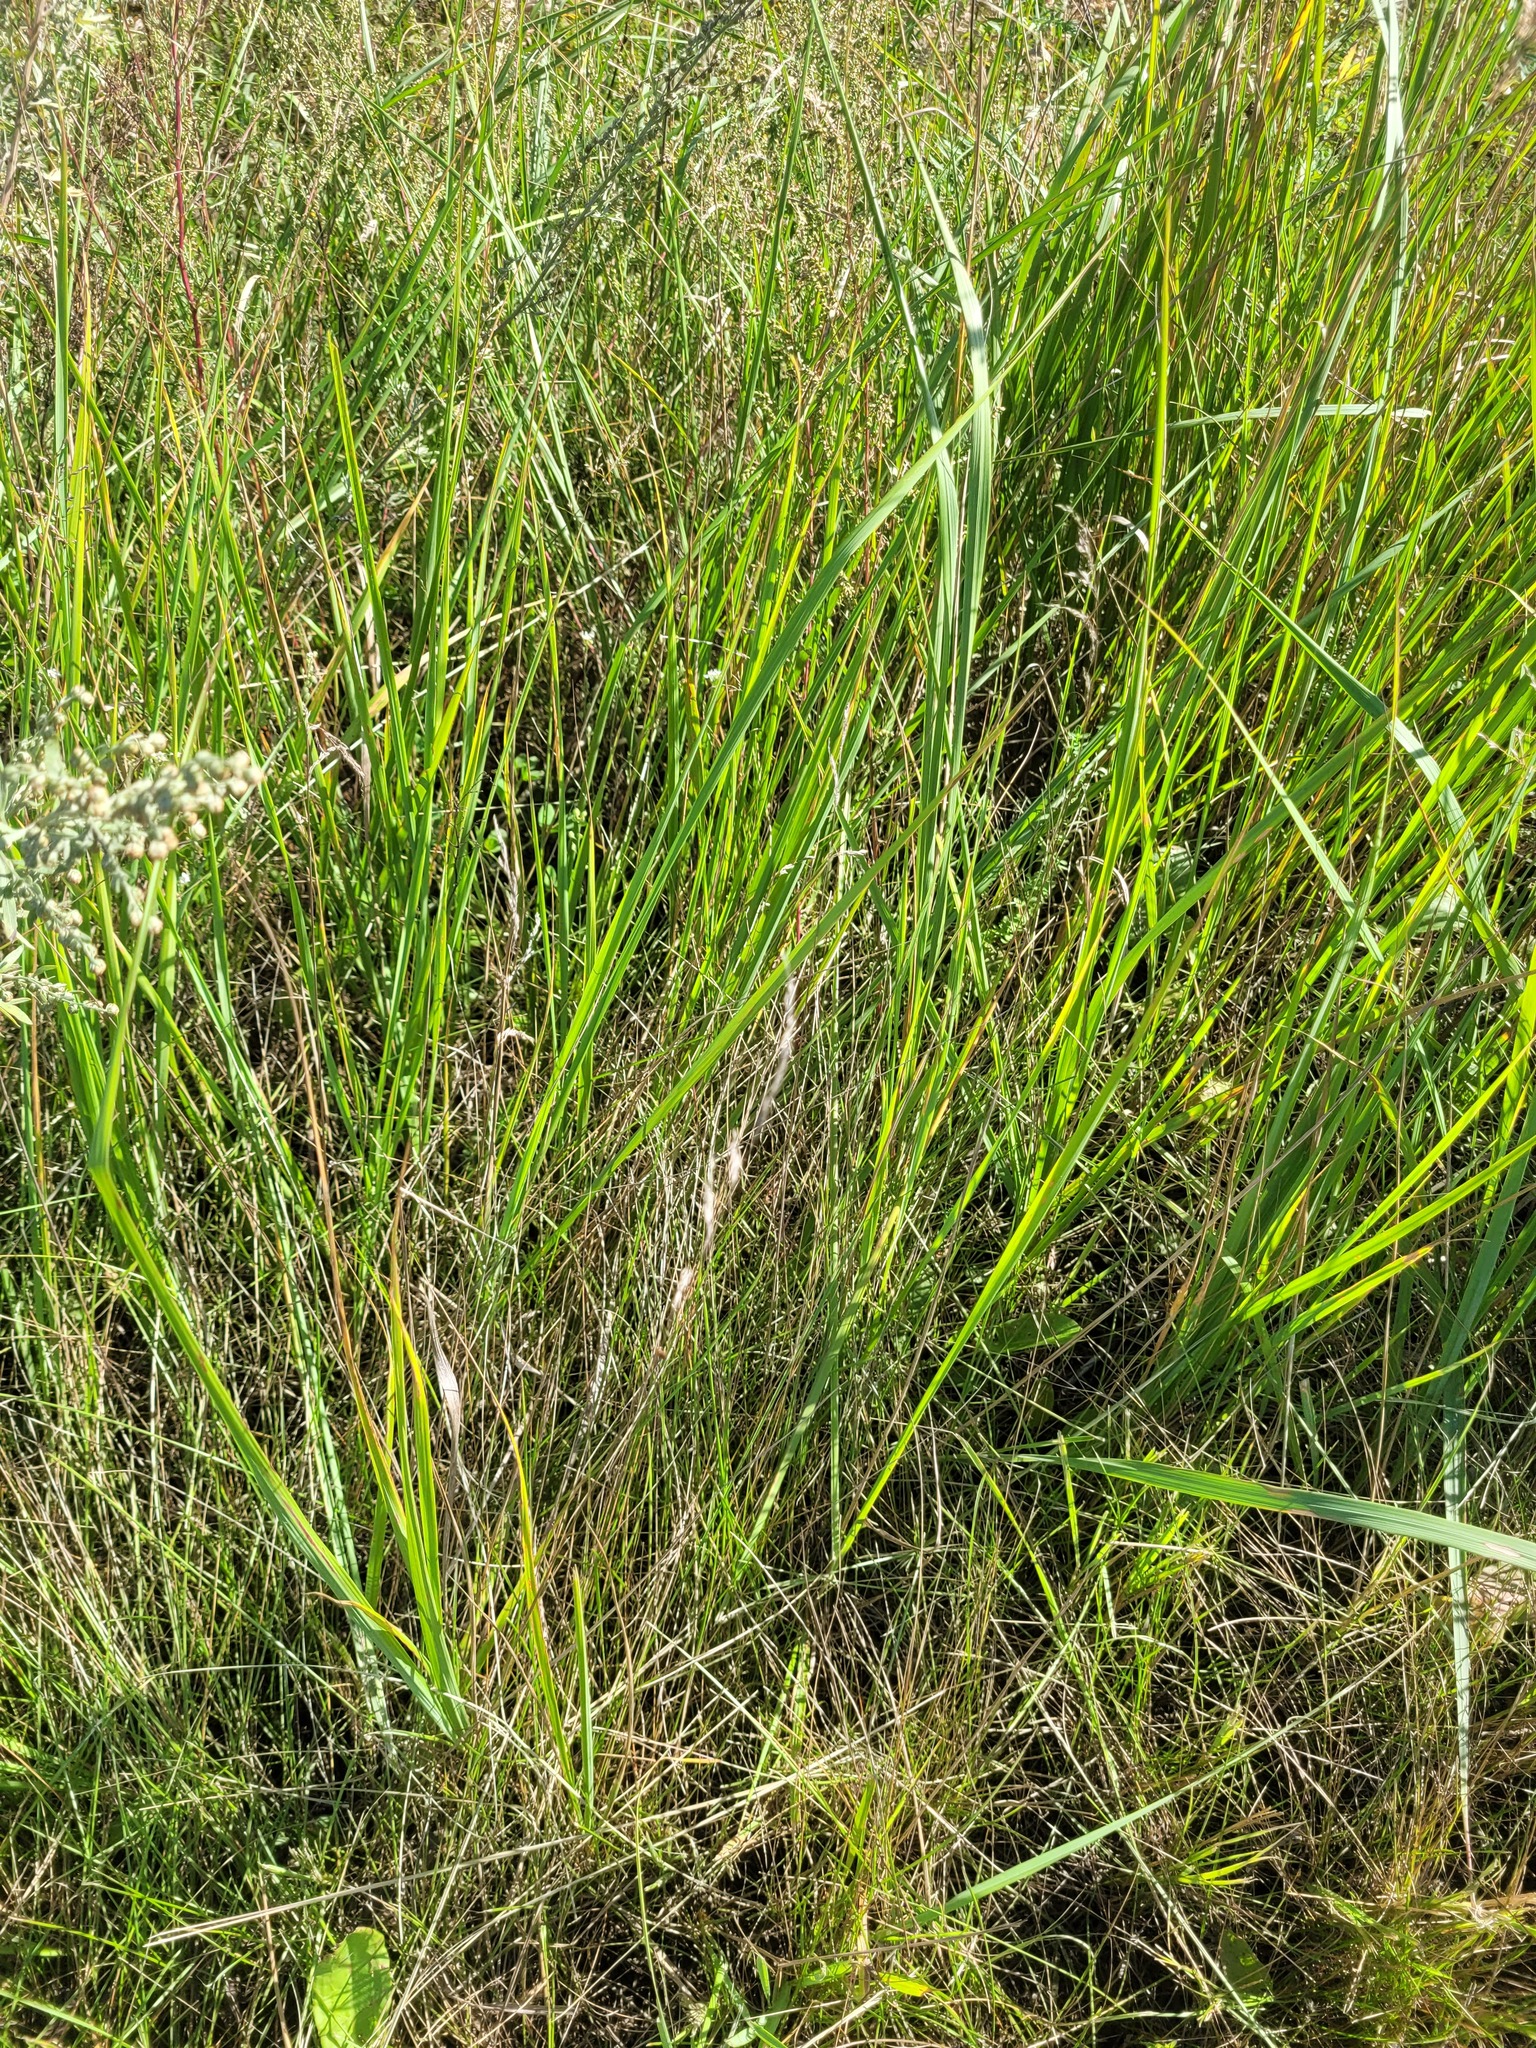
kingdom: Plantae
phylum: Tracheophyta
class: Liliopsida
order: Poales
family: Poaceae
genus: Poa
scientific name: Poa angustifolia
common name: Narrow-leaved meadow-grass
